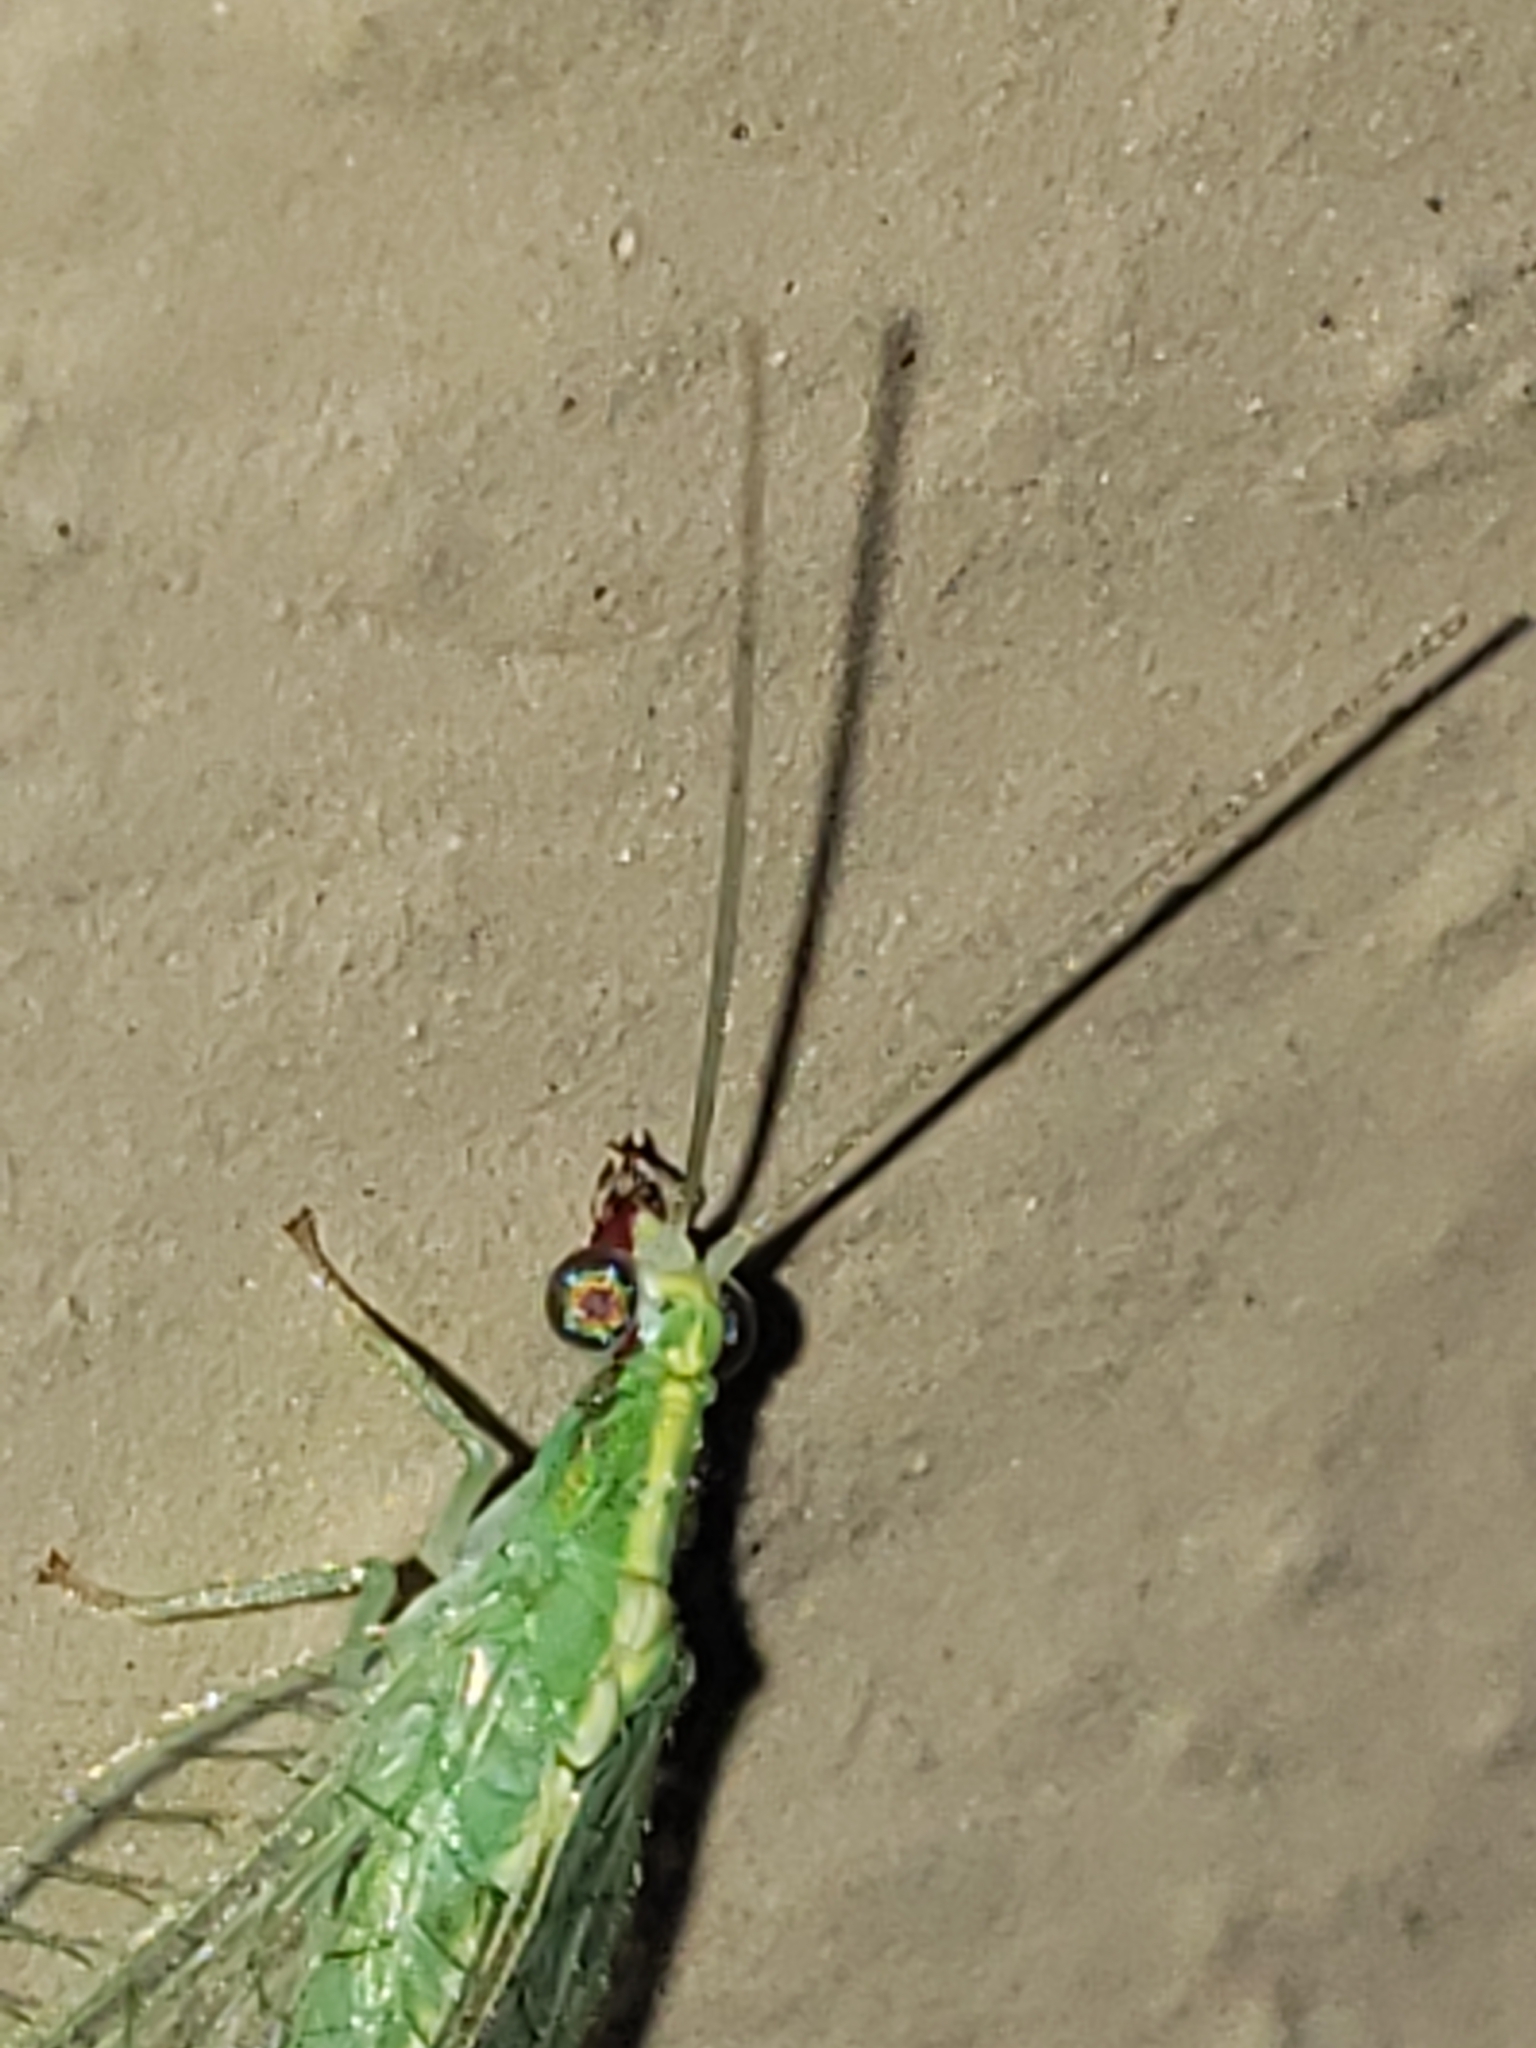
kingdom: Animalia
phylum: Arthropoda
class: Insecta
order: Neuroptera
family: Chrysopidae
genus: Chrysoperla
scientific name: Chrysoperla rufilabris
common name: Red-lipped green lacewing
